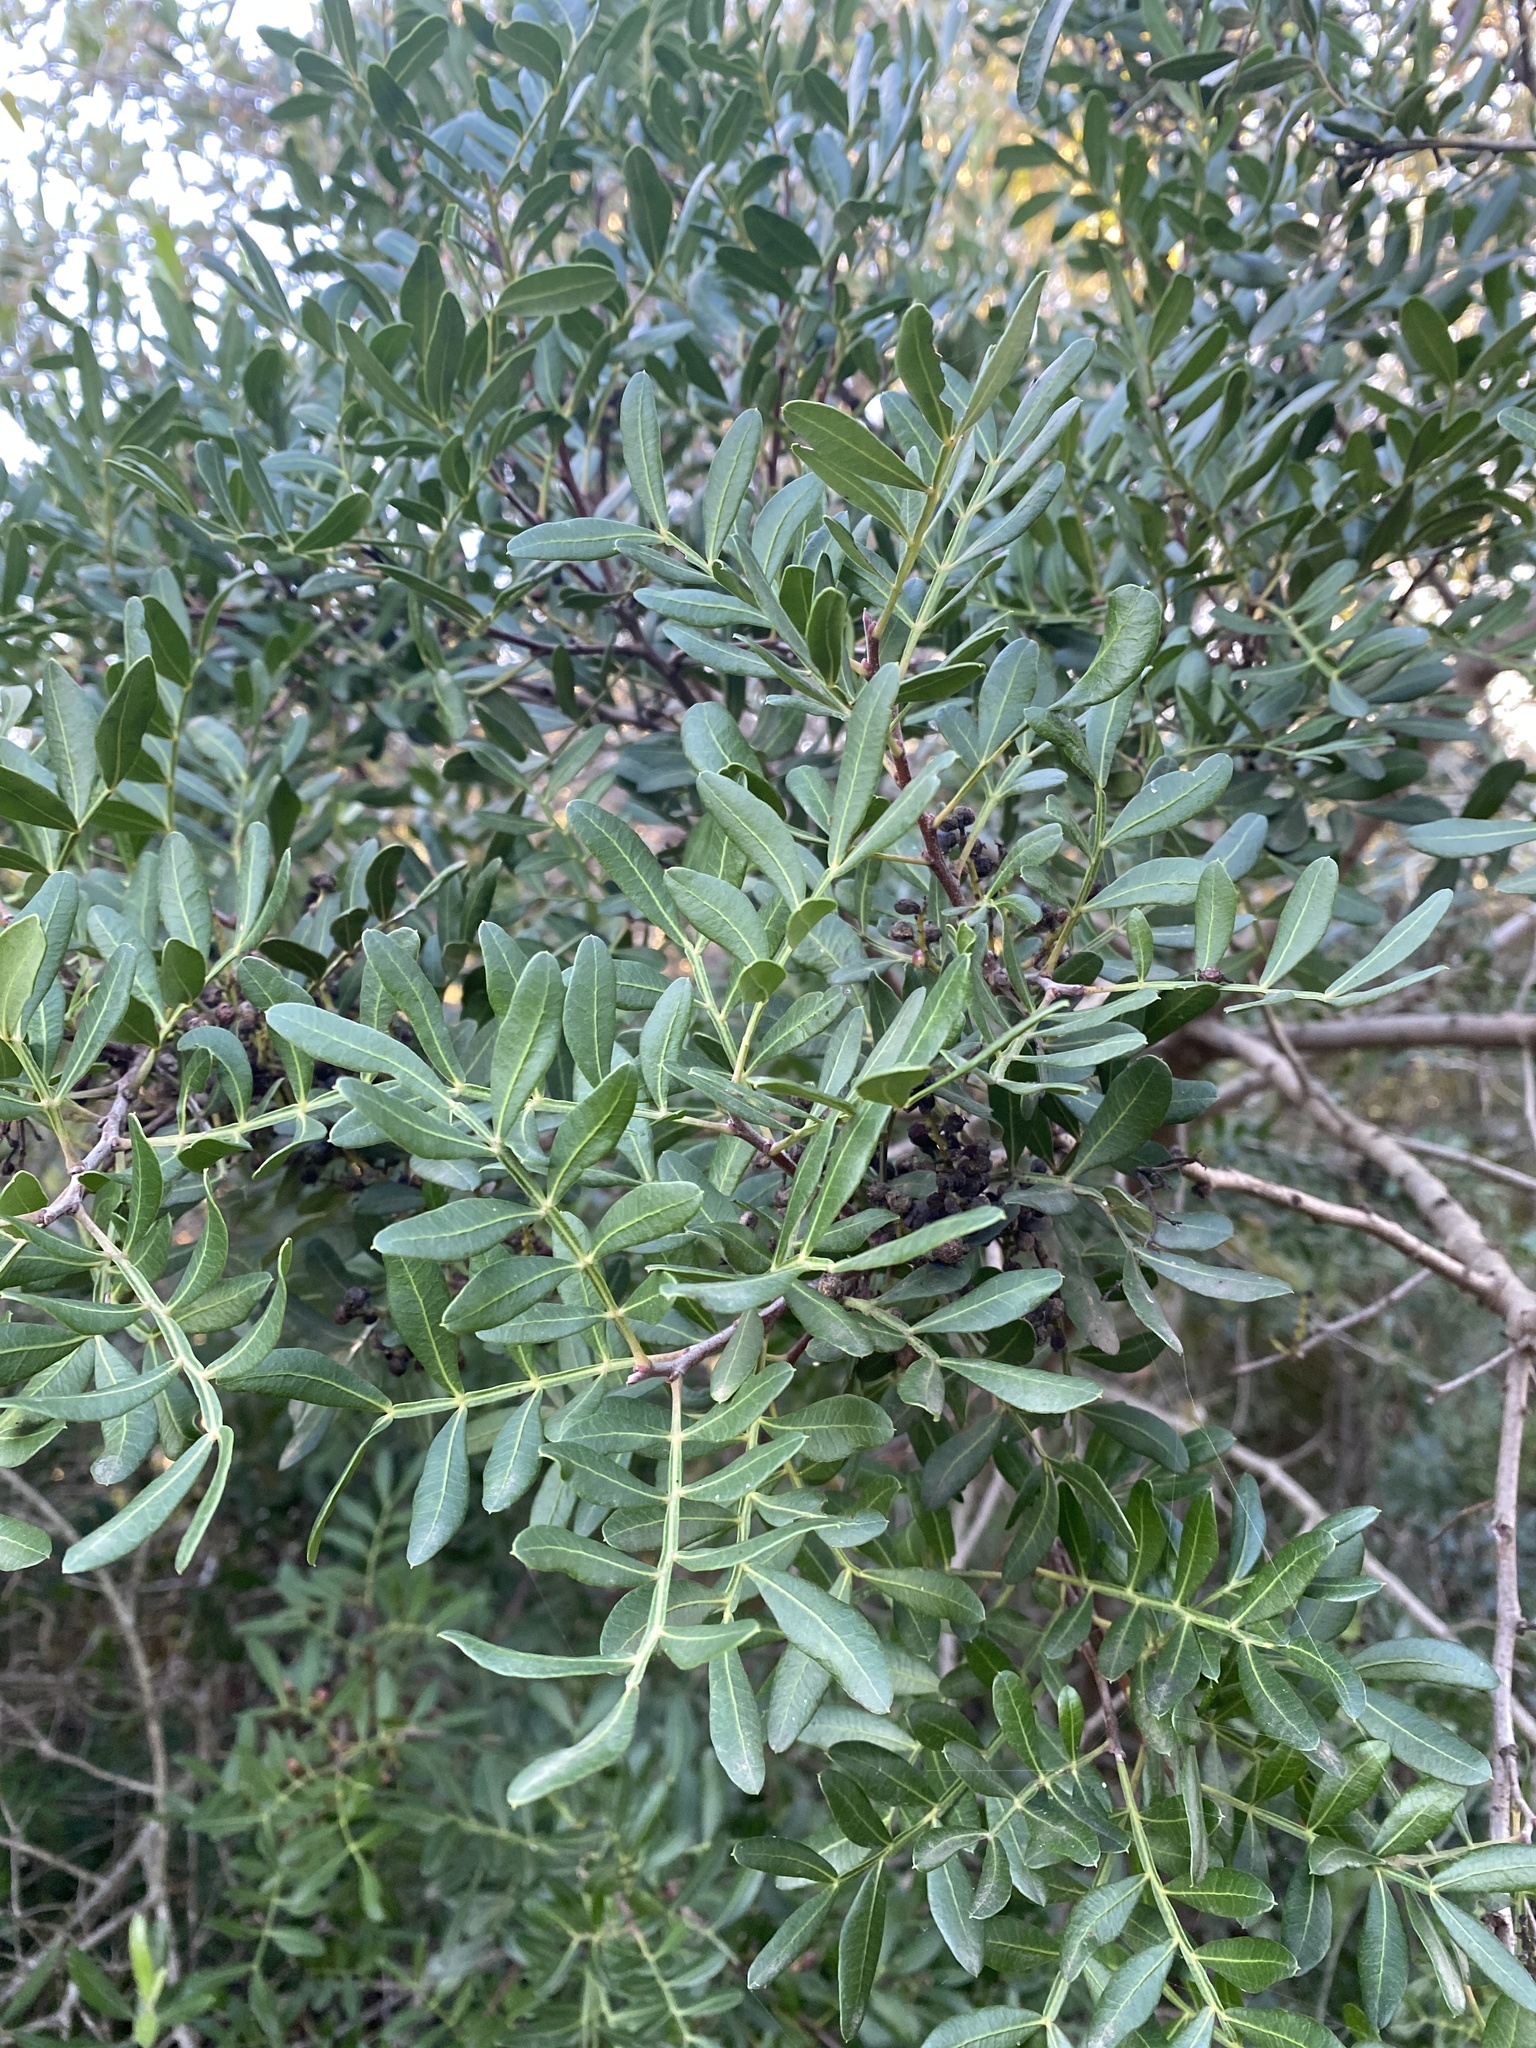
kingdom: Plantae
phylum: Tracheophyta
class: Magnoliopsida
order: Sapindales
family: Anacardiaceae
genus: Pistacia
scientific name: Pistacia lentiscus
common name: Lentisk
